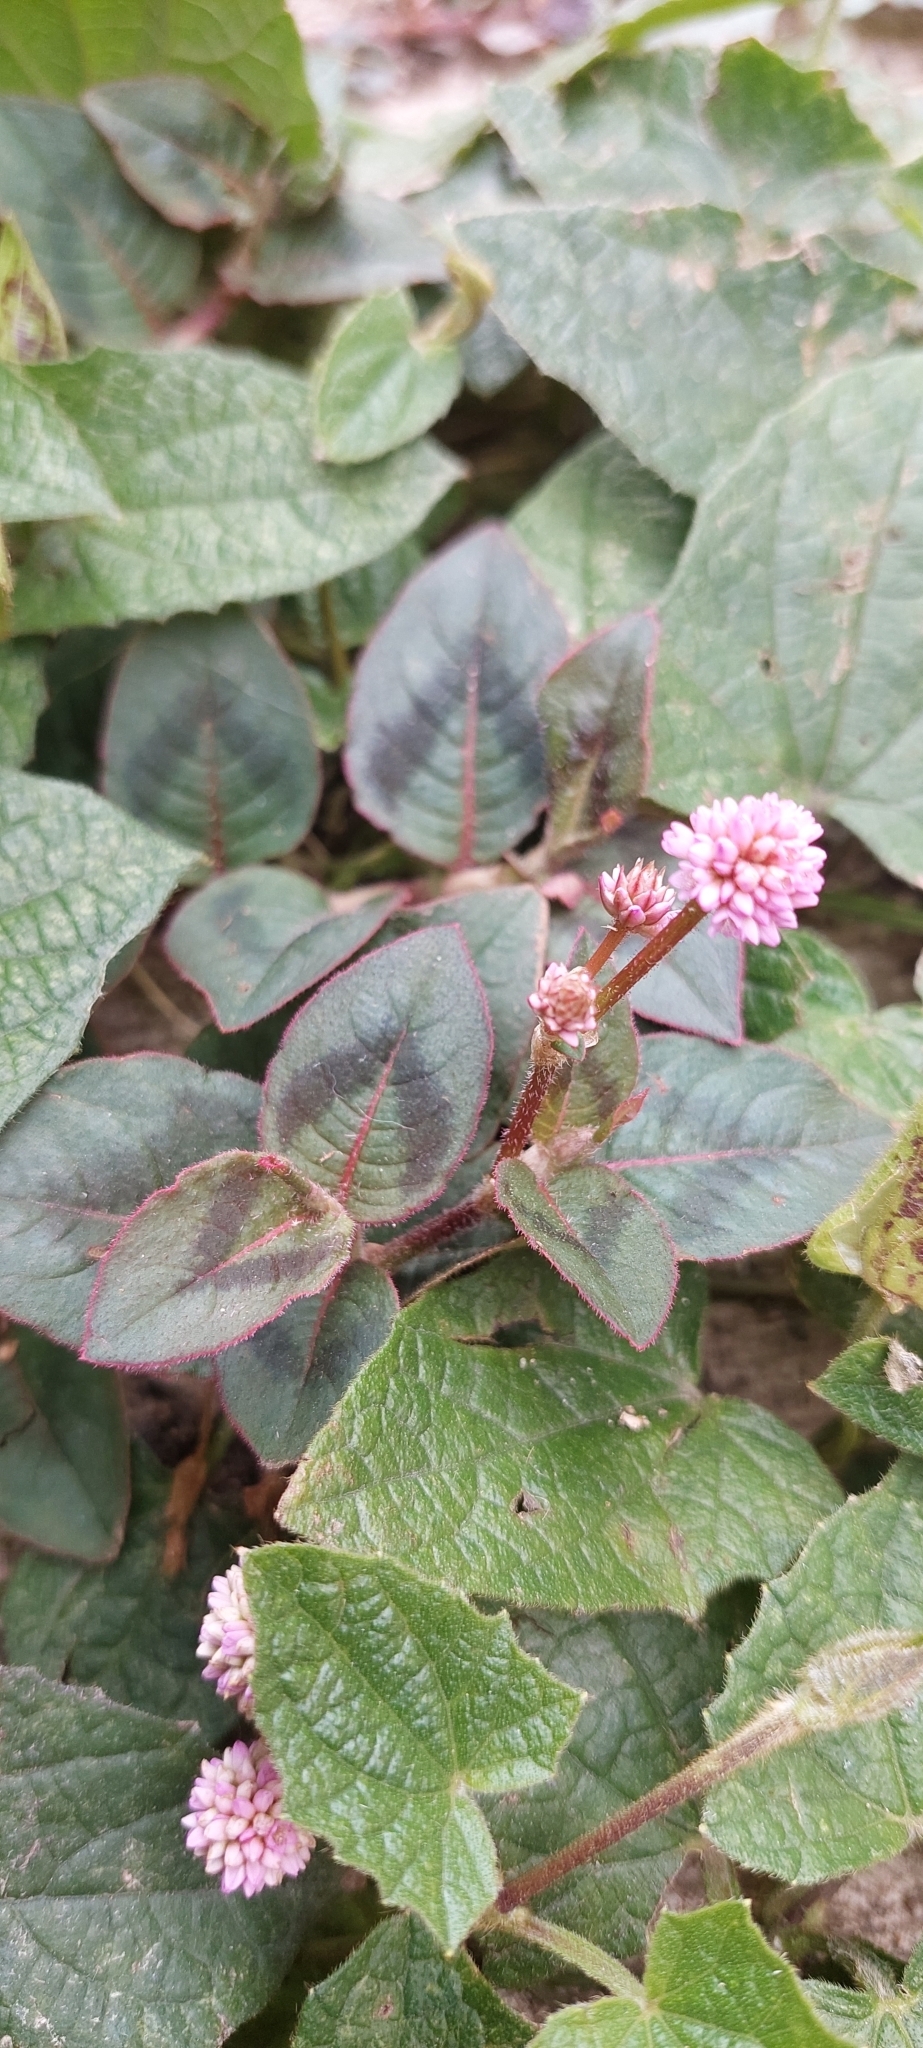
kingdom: Plantae
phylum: Tracheophyta
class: Magnoliopsida
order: Caryophyllales
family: Polygonaceae
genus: Persicaria
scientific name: Persicaria capitata
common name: Pinkhead smartweed
